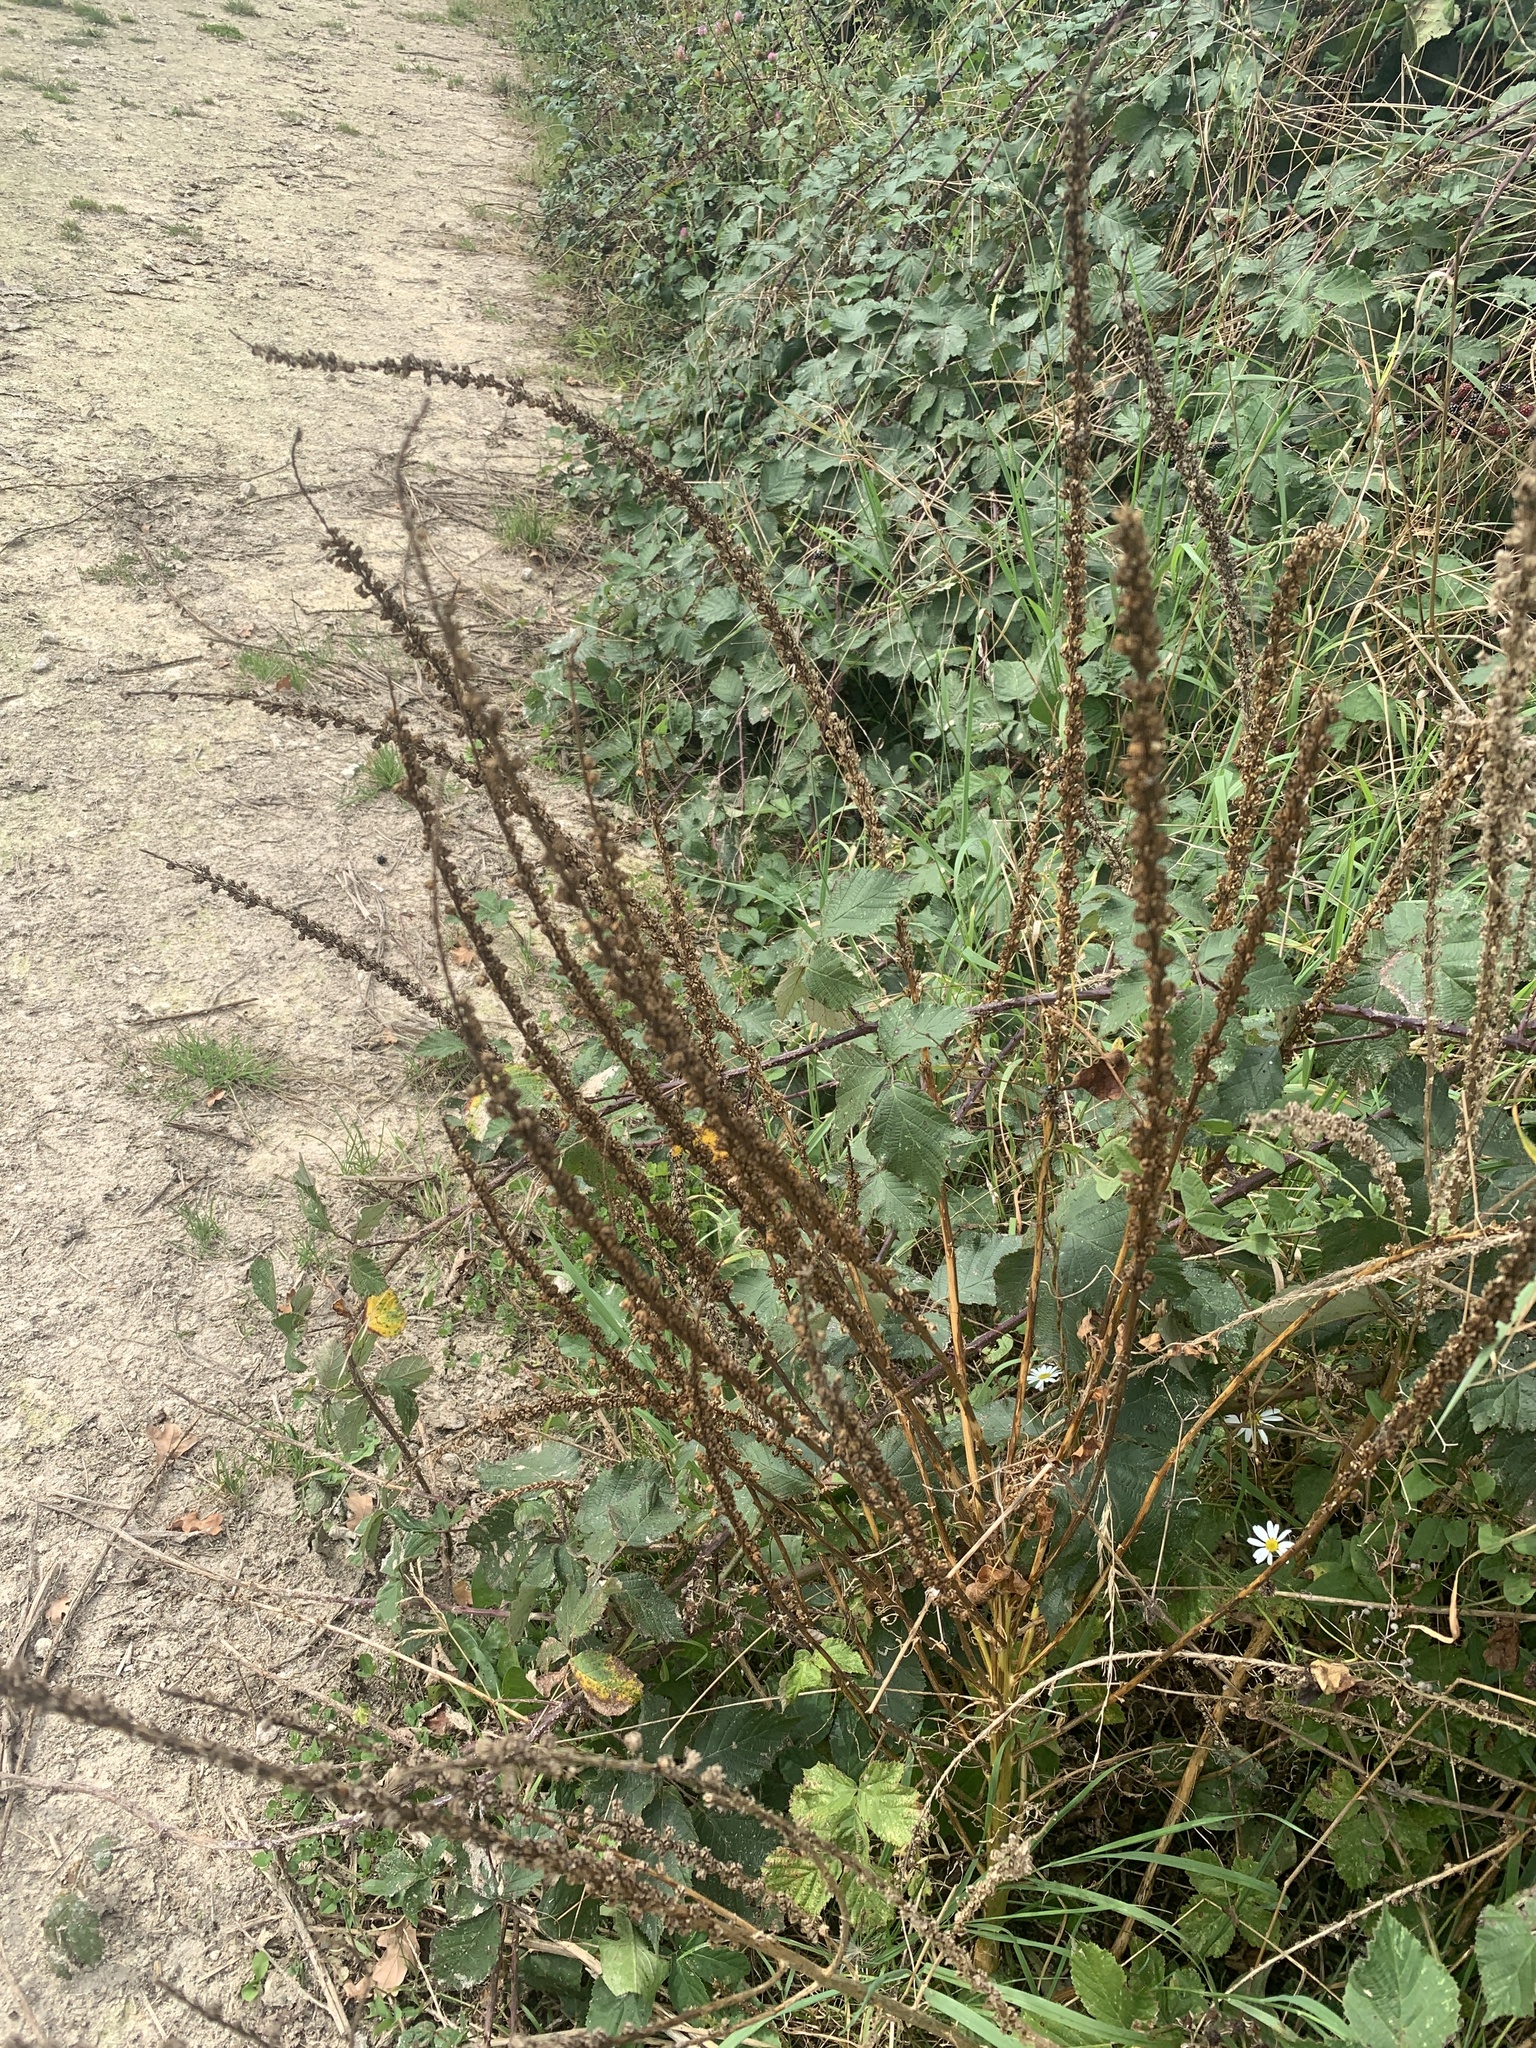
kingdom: Plantae
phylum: Tracheophyta
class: Magnoliopsida
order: Brassicales
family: Resedaceae
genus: Reseda
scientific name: Reseda luteola
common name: Weld
